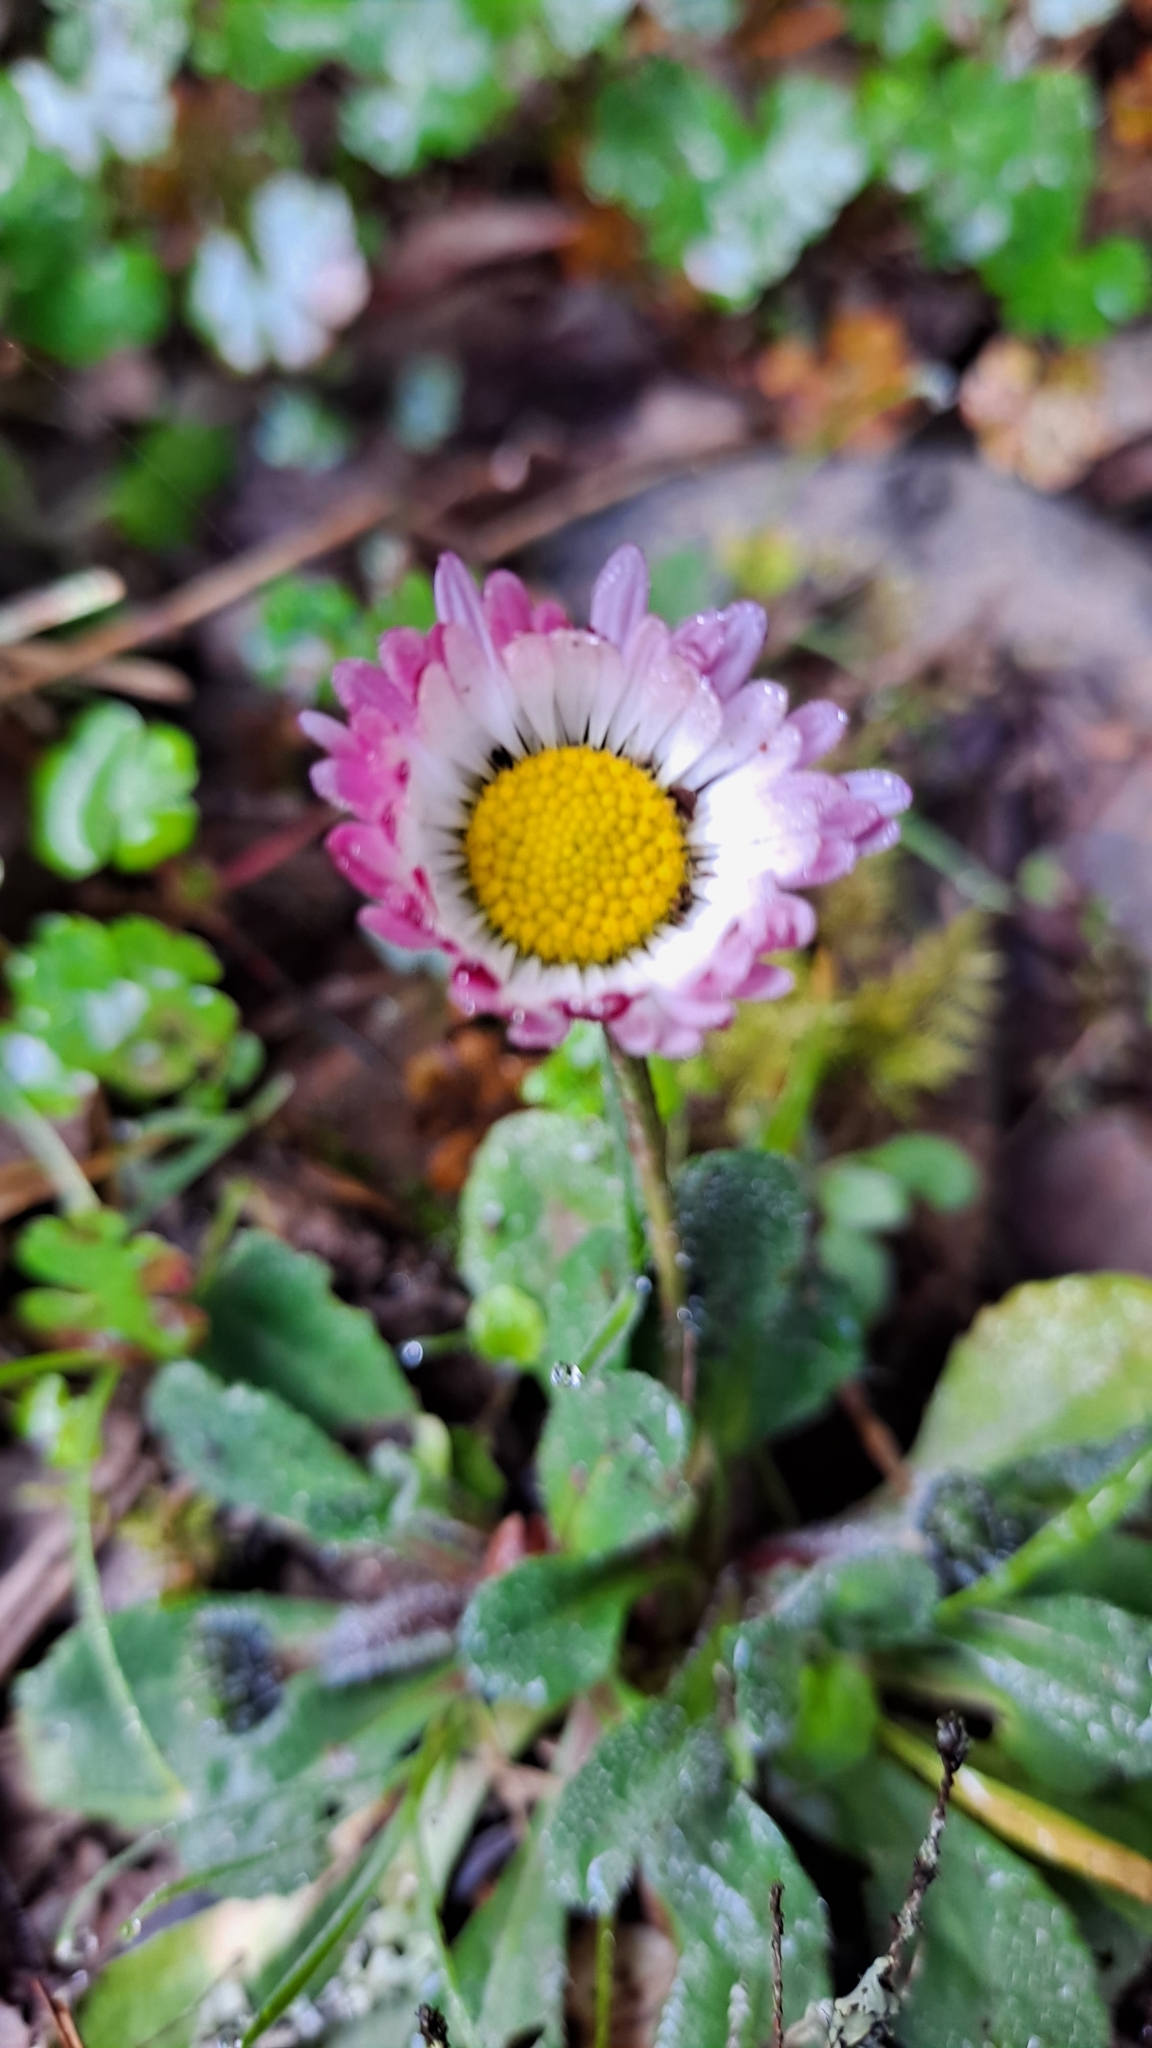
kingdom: Plantae
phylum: Tracheophyta
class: Magnoliopsida
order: Asterales
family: Asteraceae
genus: Bellis
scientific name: Bellis perennis
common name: Lawndaisy
